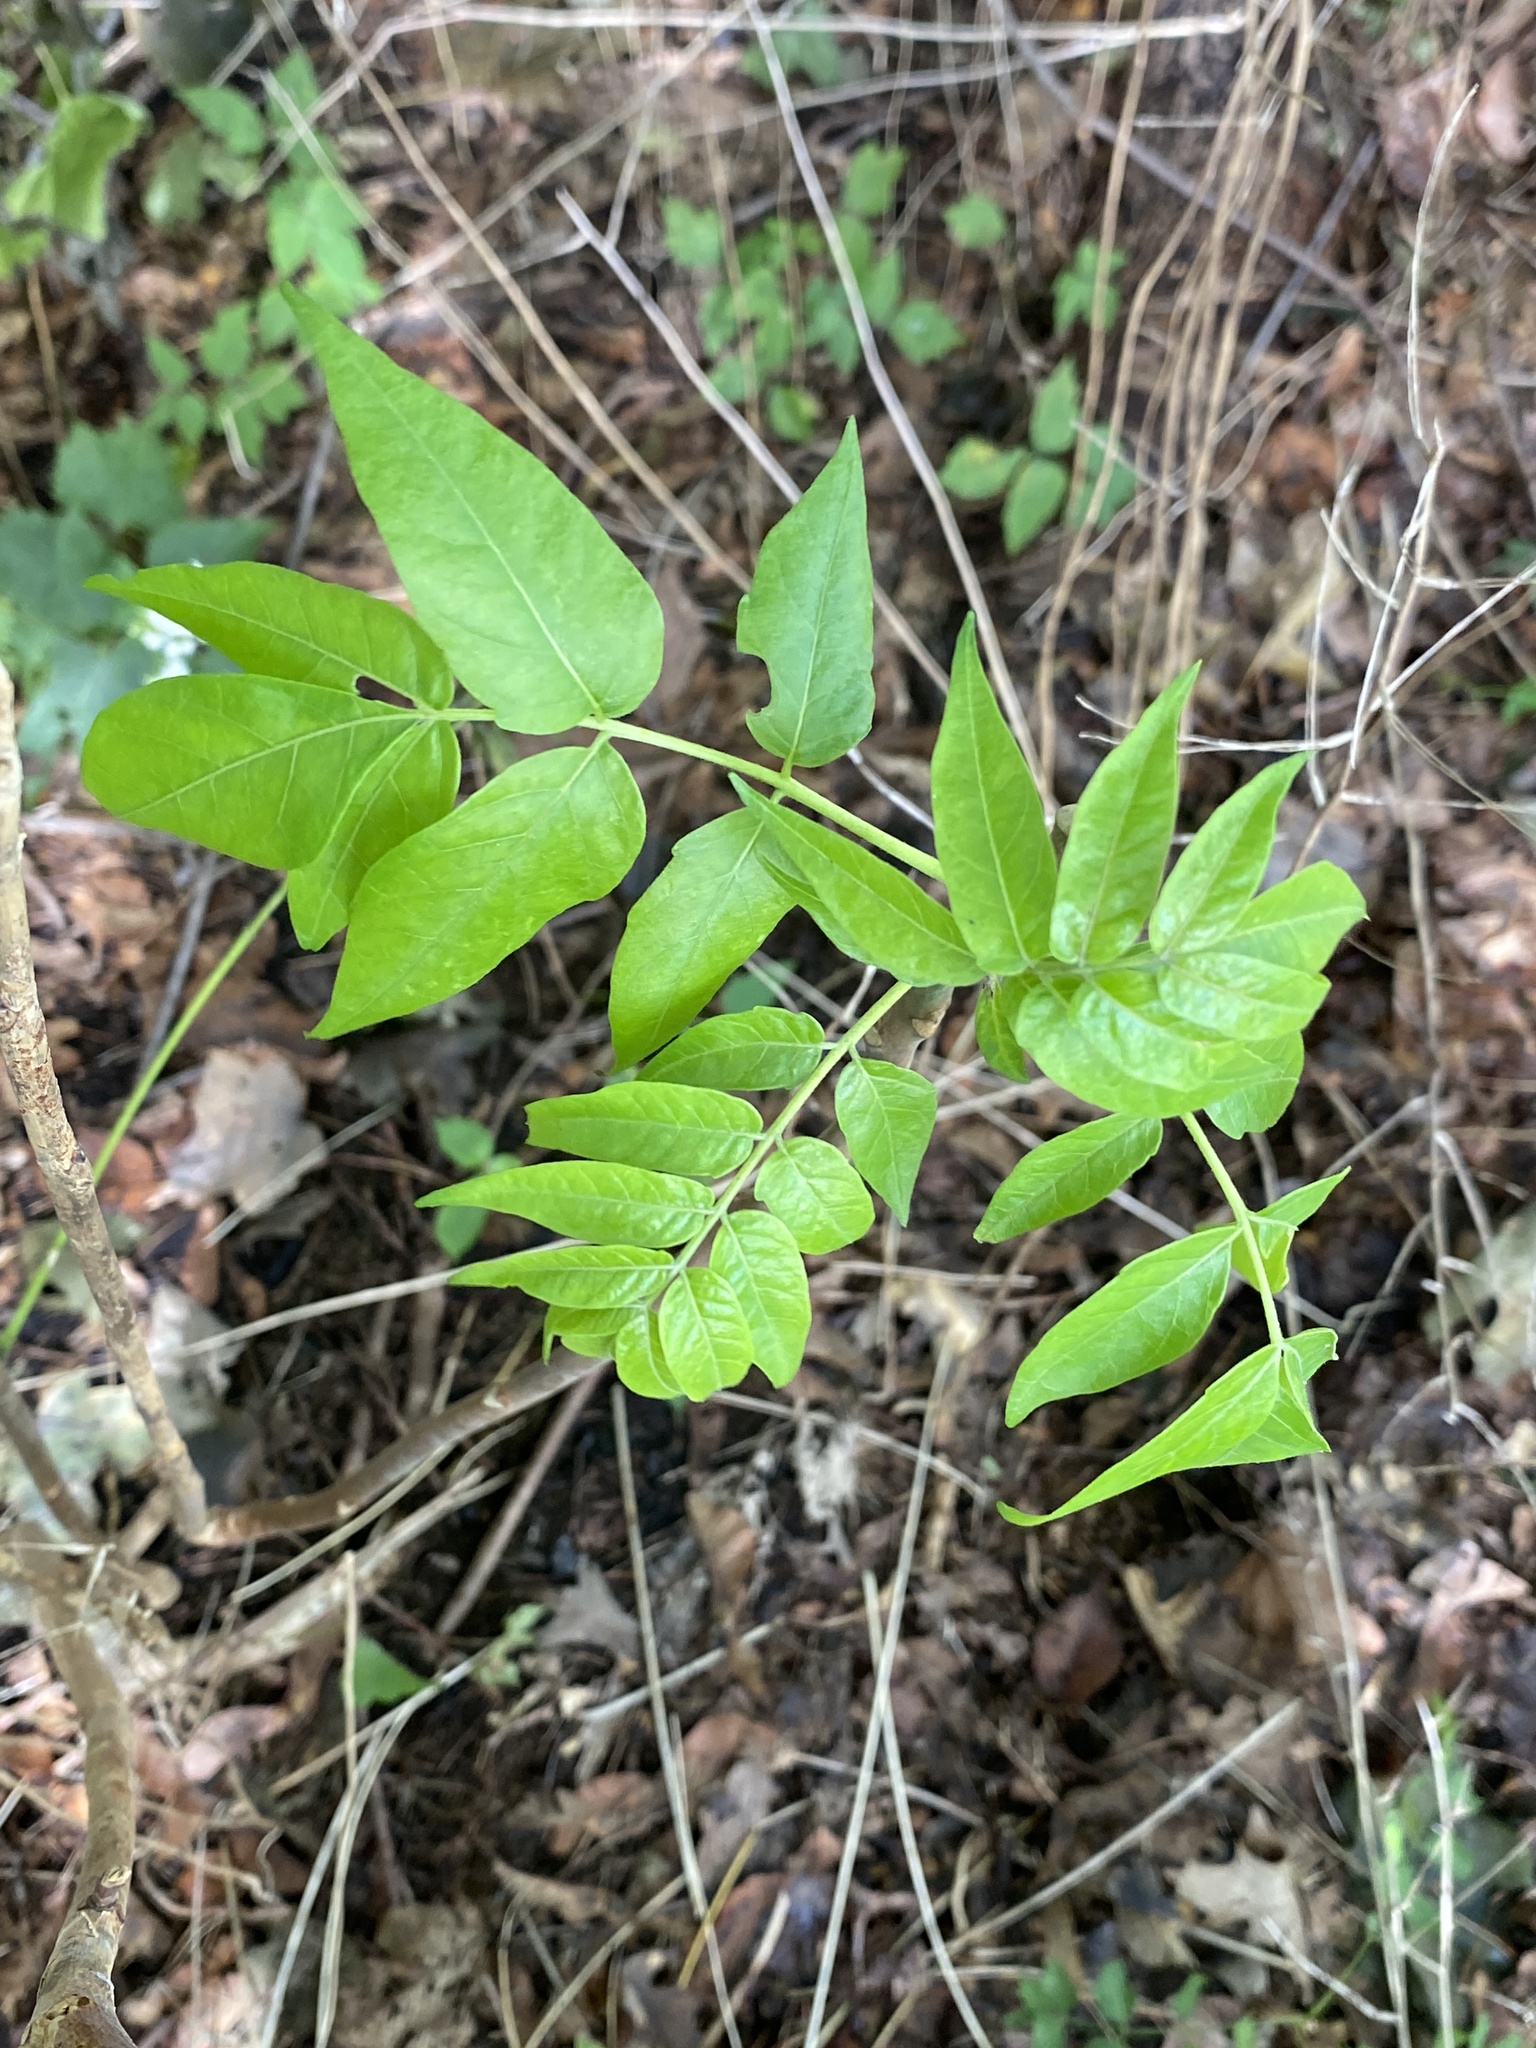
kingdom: Plantae
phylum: Tracheophyta
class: Magnoliopsida
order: Sapindales
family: Simaroubaceae
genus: Ailanthus
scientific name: Ailanthus altissima
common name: Tree-of-heaven
